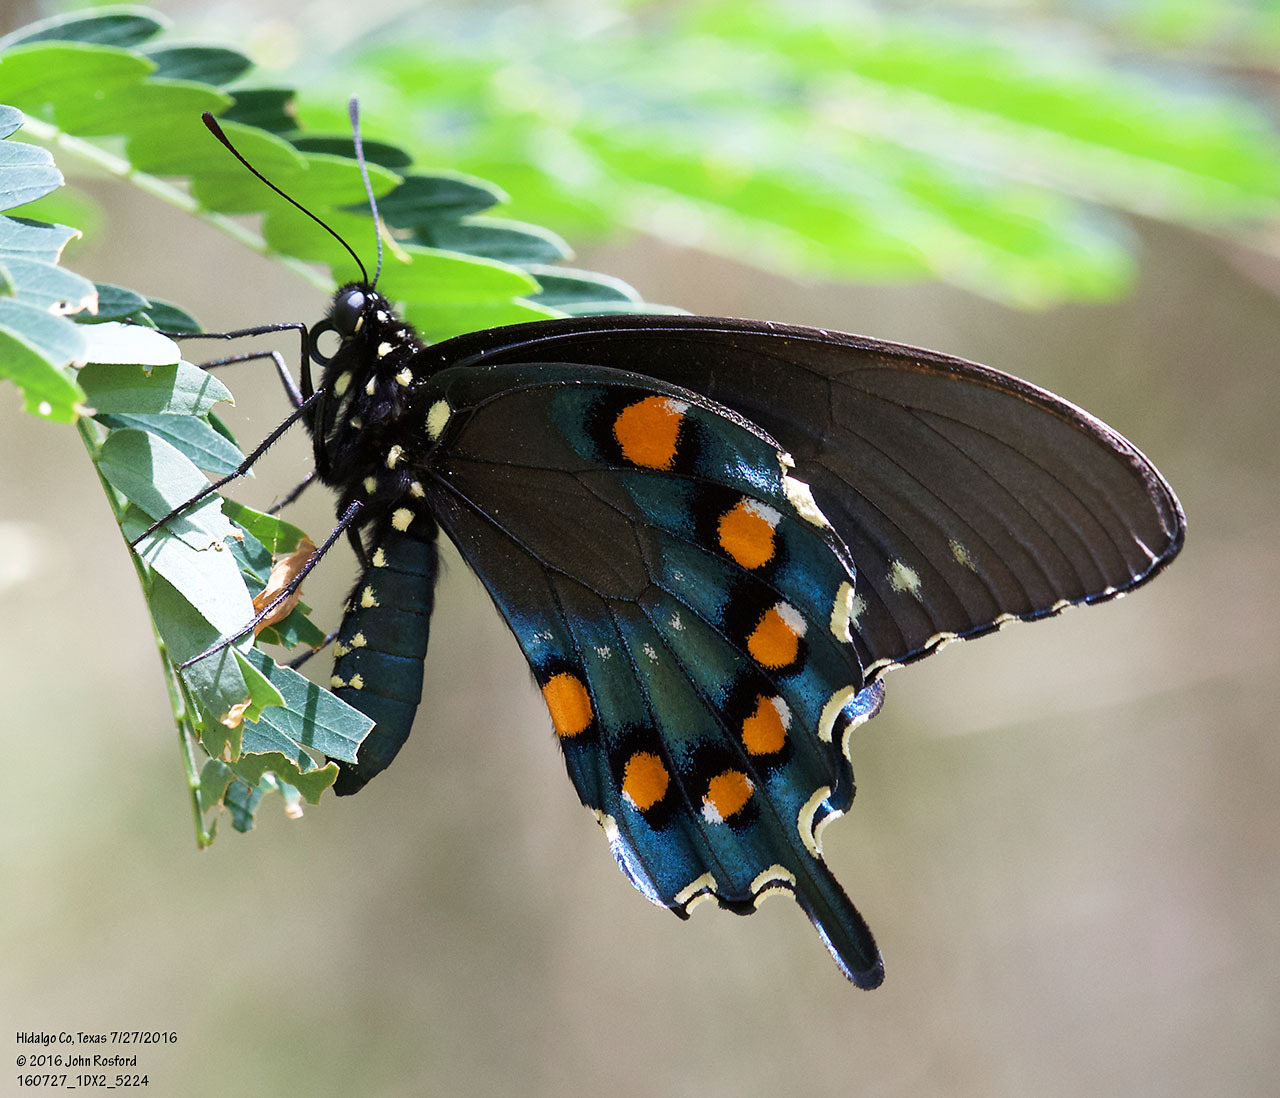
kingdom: Animalia
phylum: Arthropoda
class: Insecta
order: Lepidoptera
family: Papilionidae
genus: Battus
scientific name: Battus philenor
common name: Pipevine swallowtail
